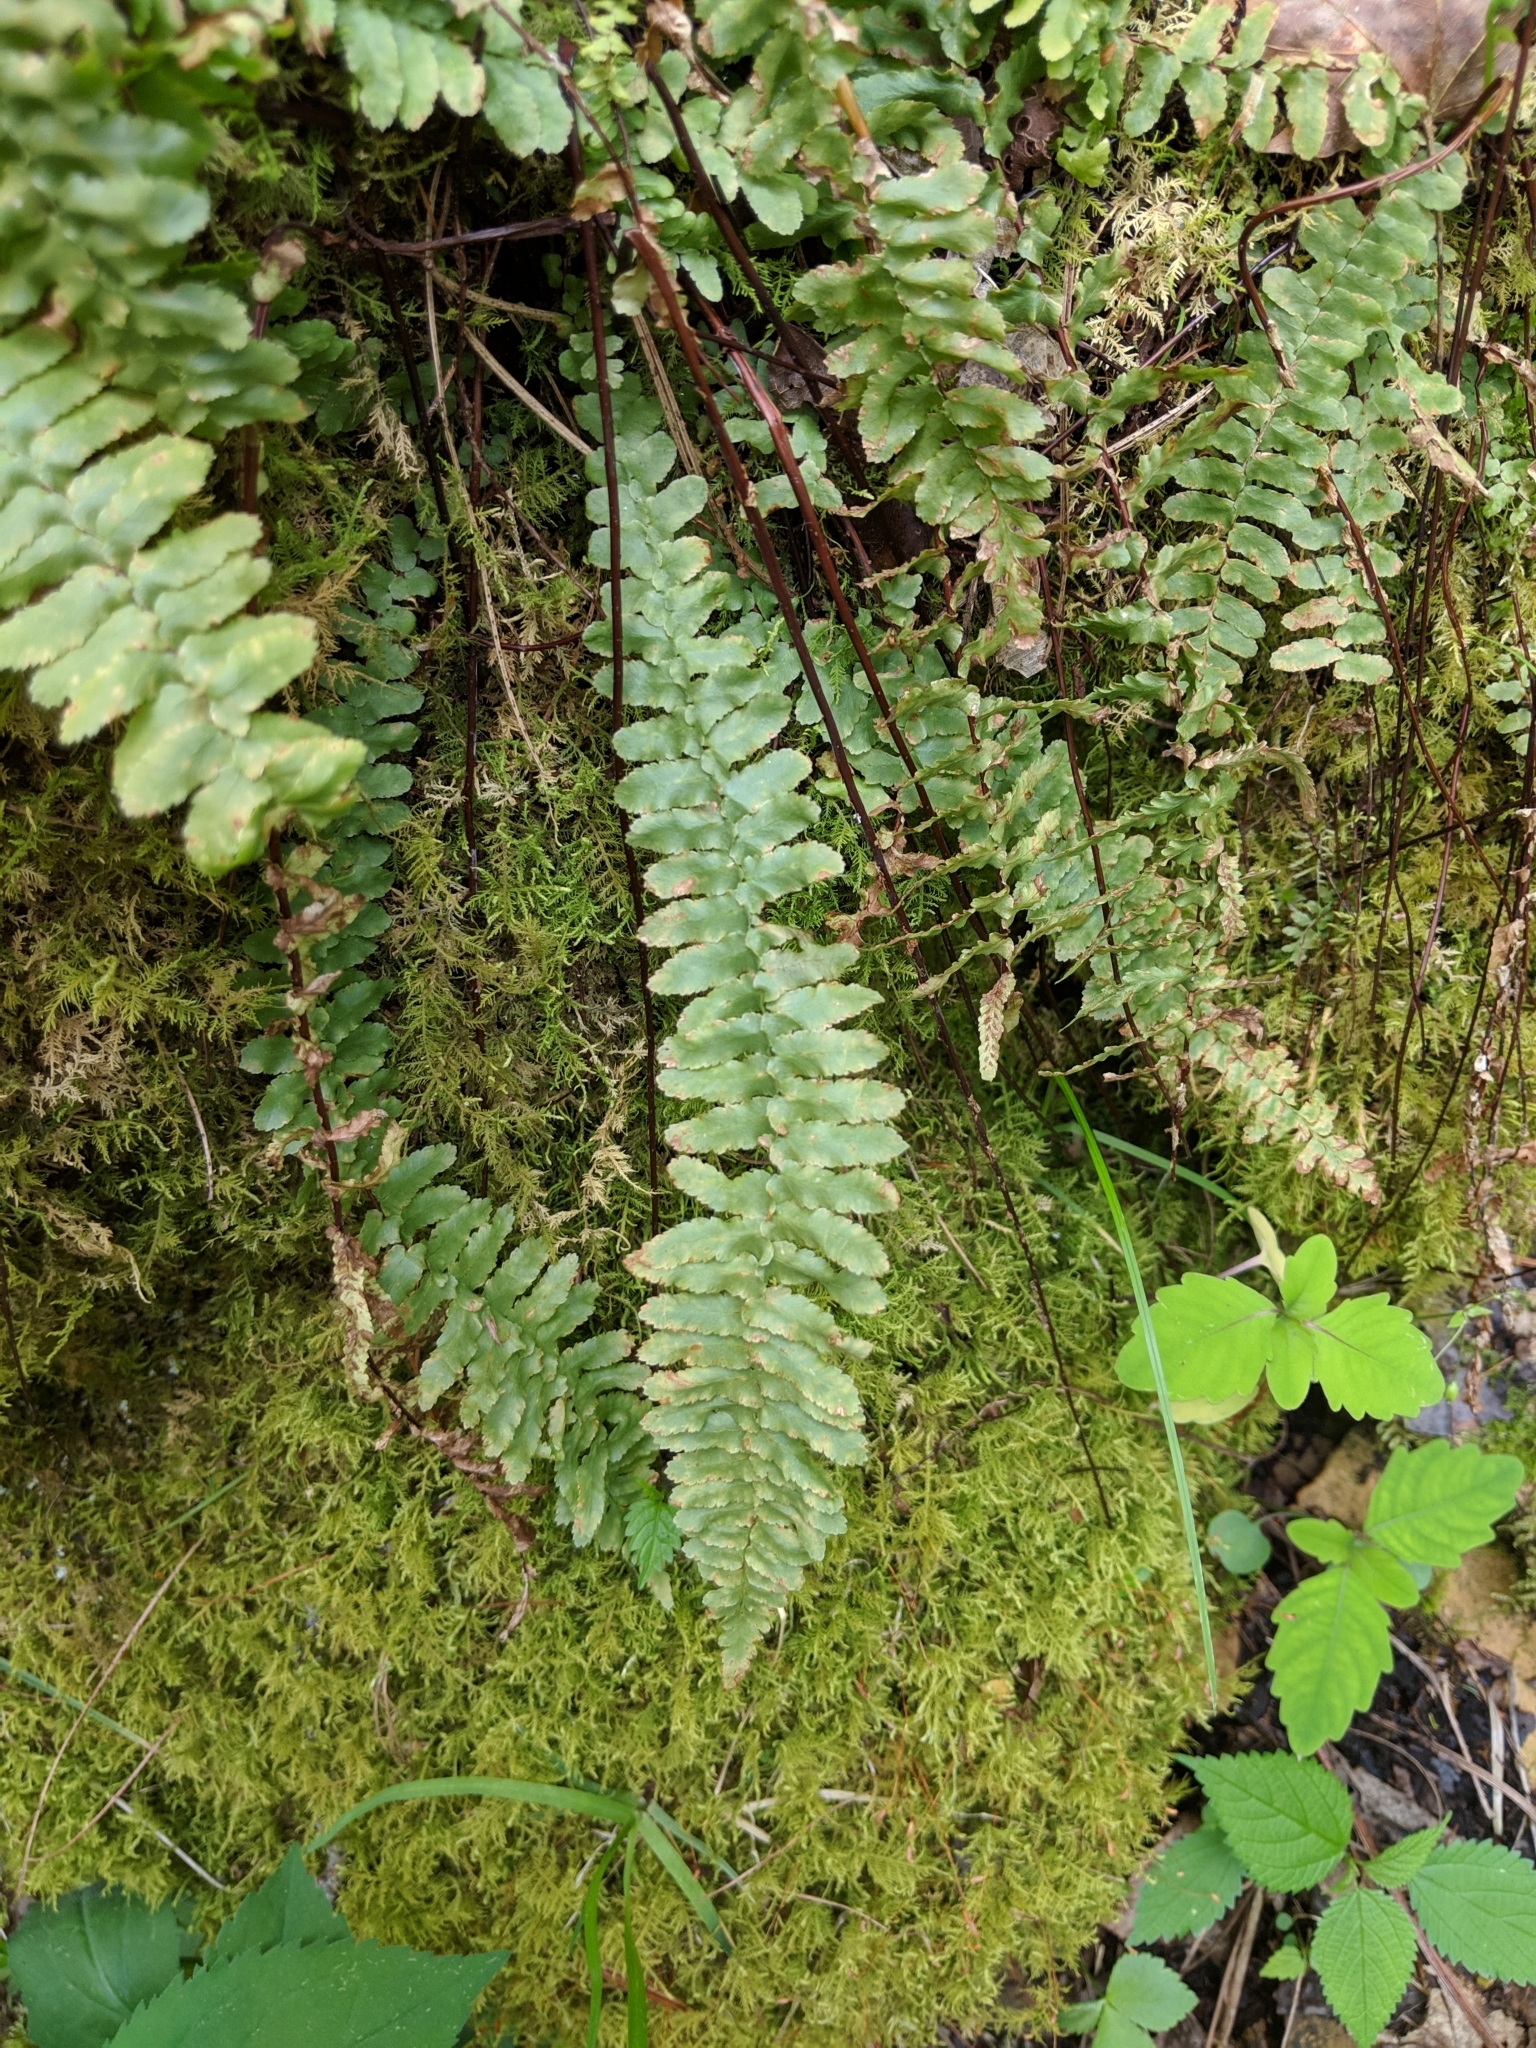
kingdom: Plantae
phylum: Tracheophyta
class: Polypodiopsida
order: Polypodiales
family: Aspleniaceae
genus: Asplenium
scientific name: Asplenium platyneuron
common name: Ebony spleenwort
